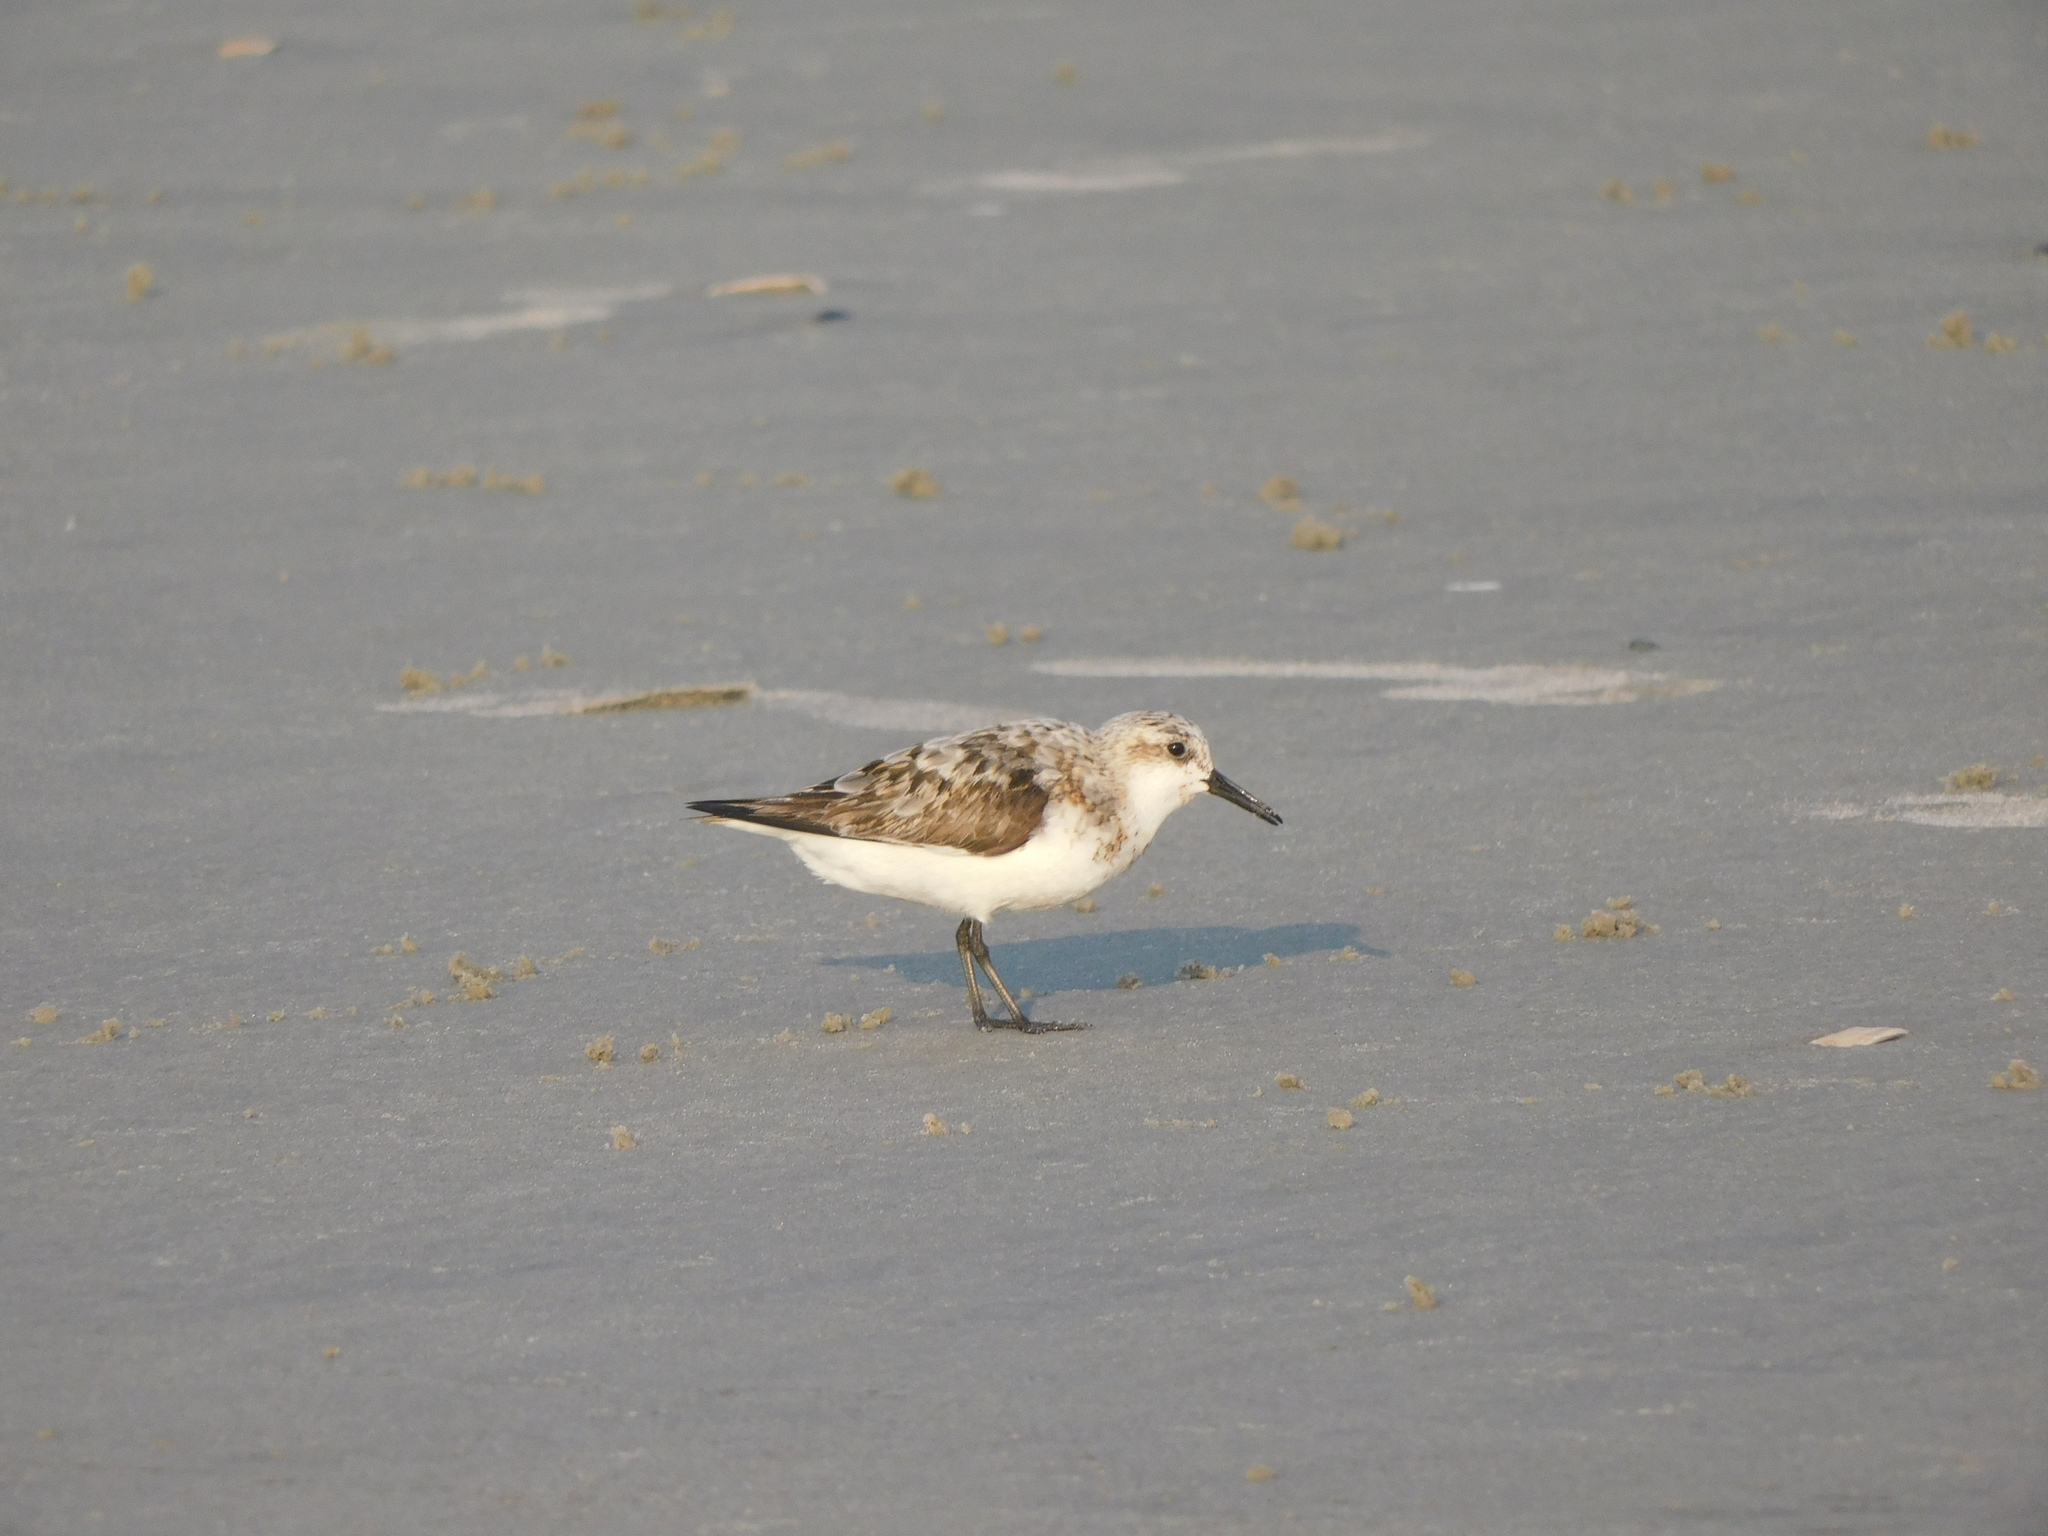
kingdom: Animalia
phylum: Chordata
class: Aves
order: Charadriiformes
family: Scolopacidae
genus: Calidris
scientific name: Calidris alba
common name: Sanderling
